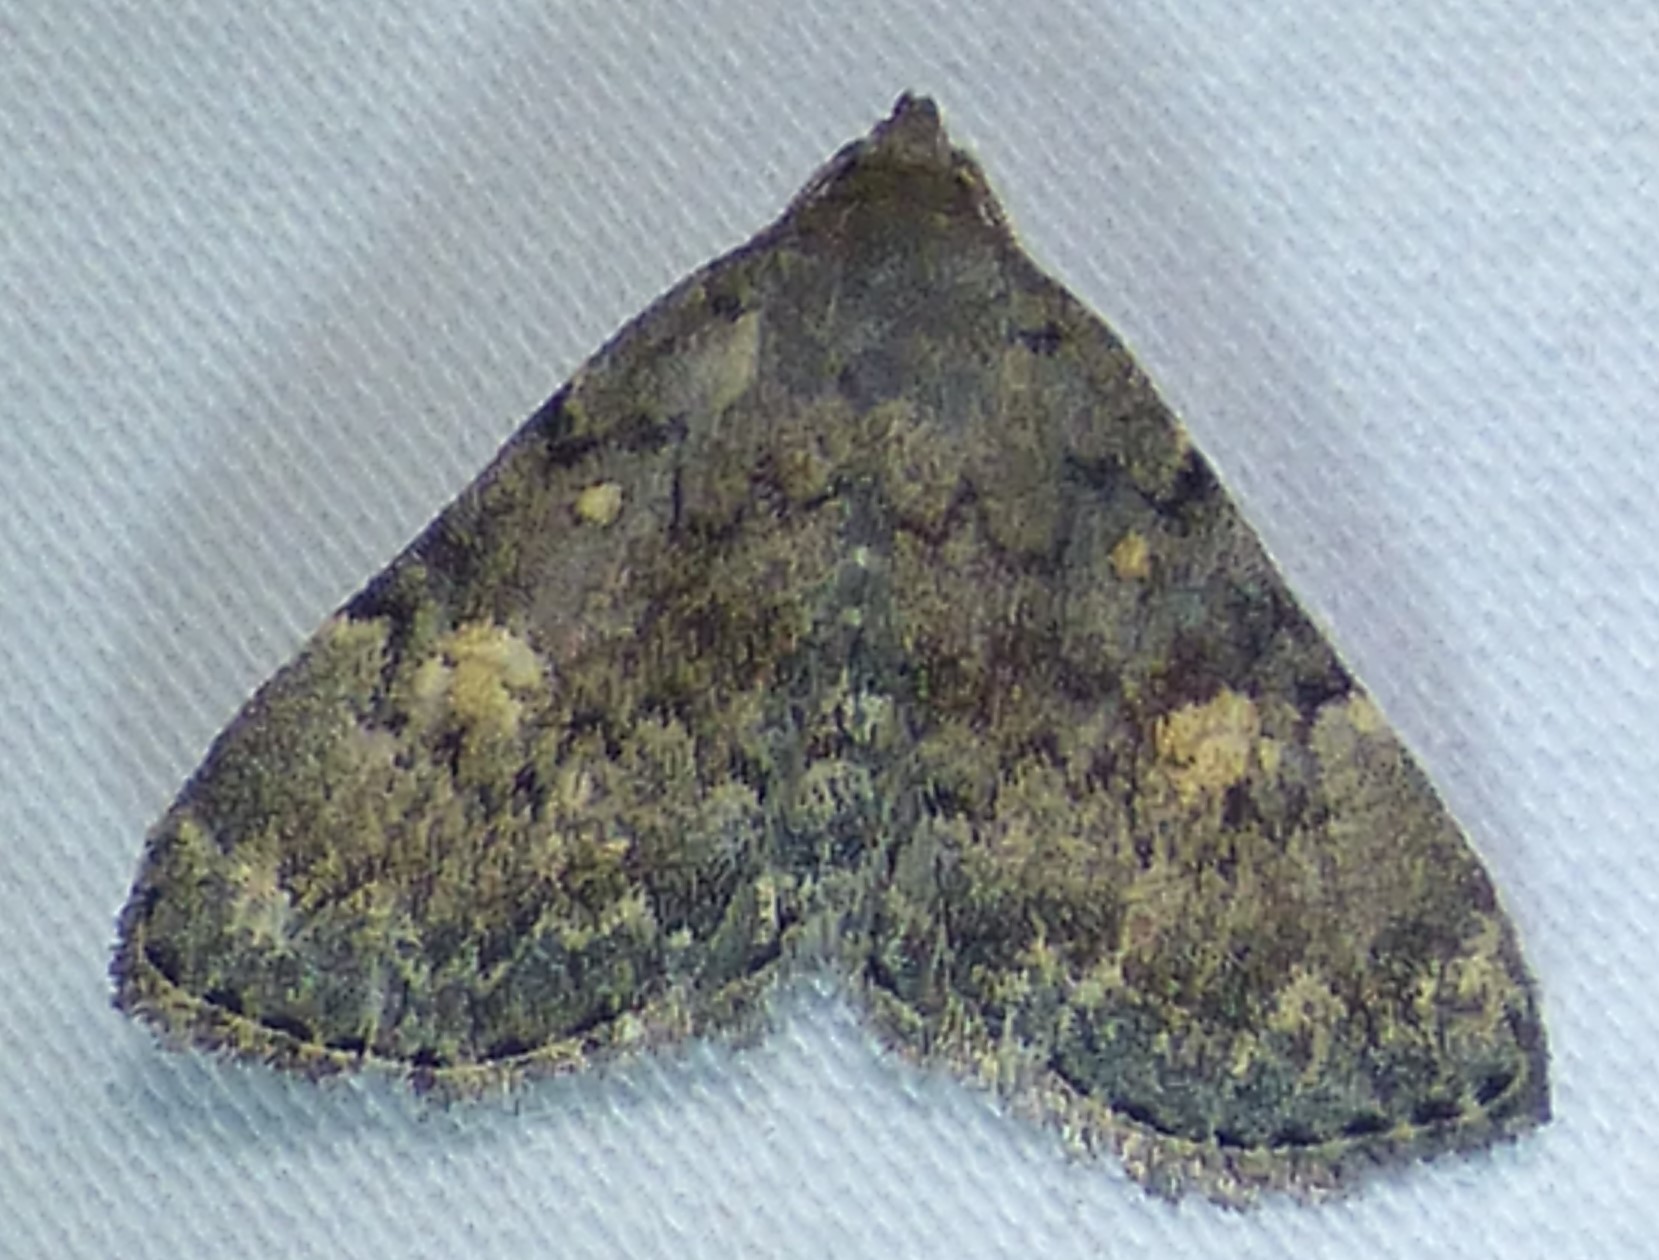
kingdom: Animalia
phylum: Arthropoda
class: Insecta
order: Lepidoptera
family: Erebidae
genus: Idia
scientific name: Idia aemula
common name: Common idia moth
